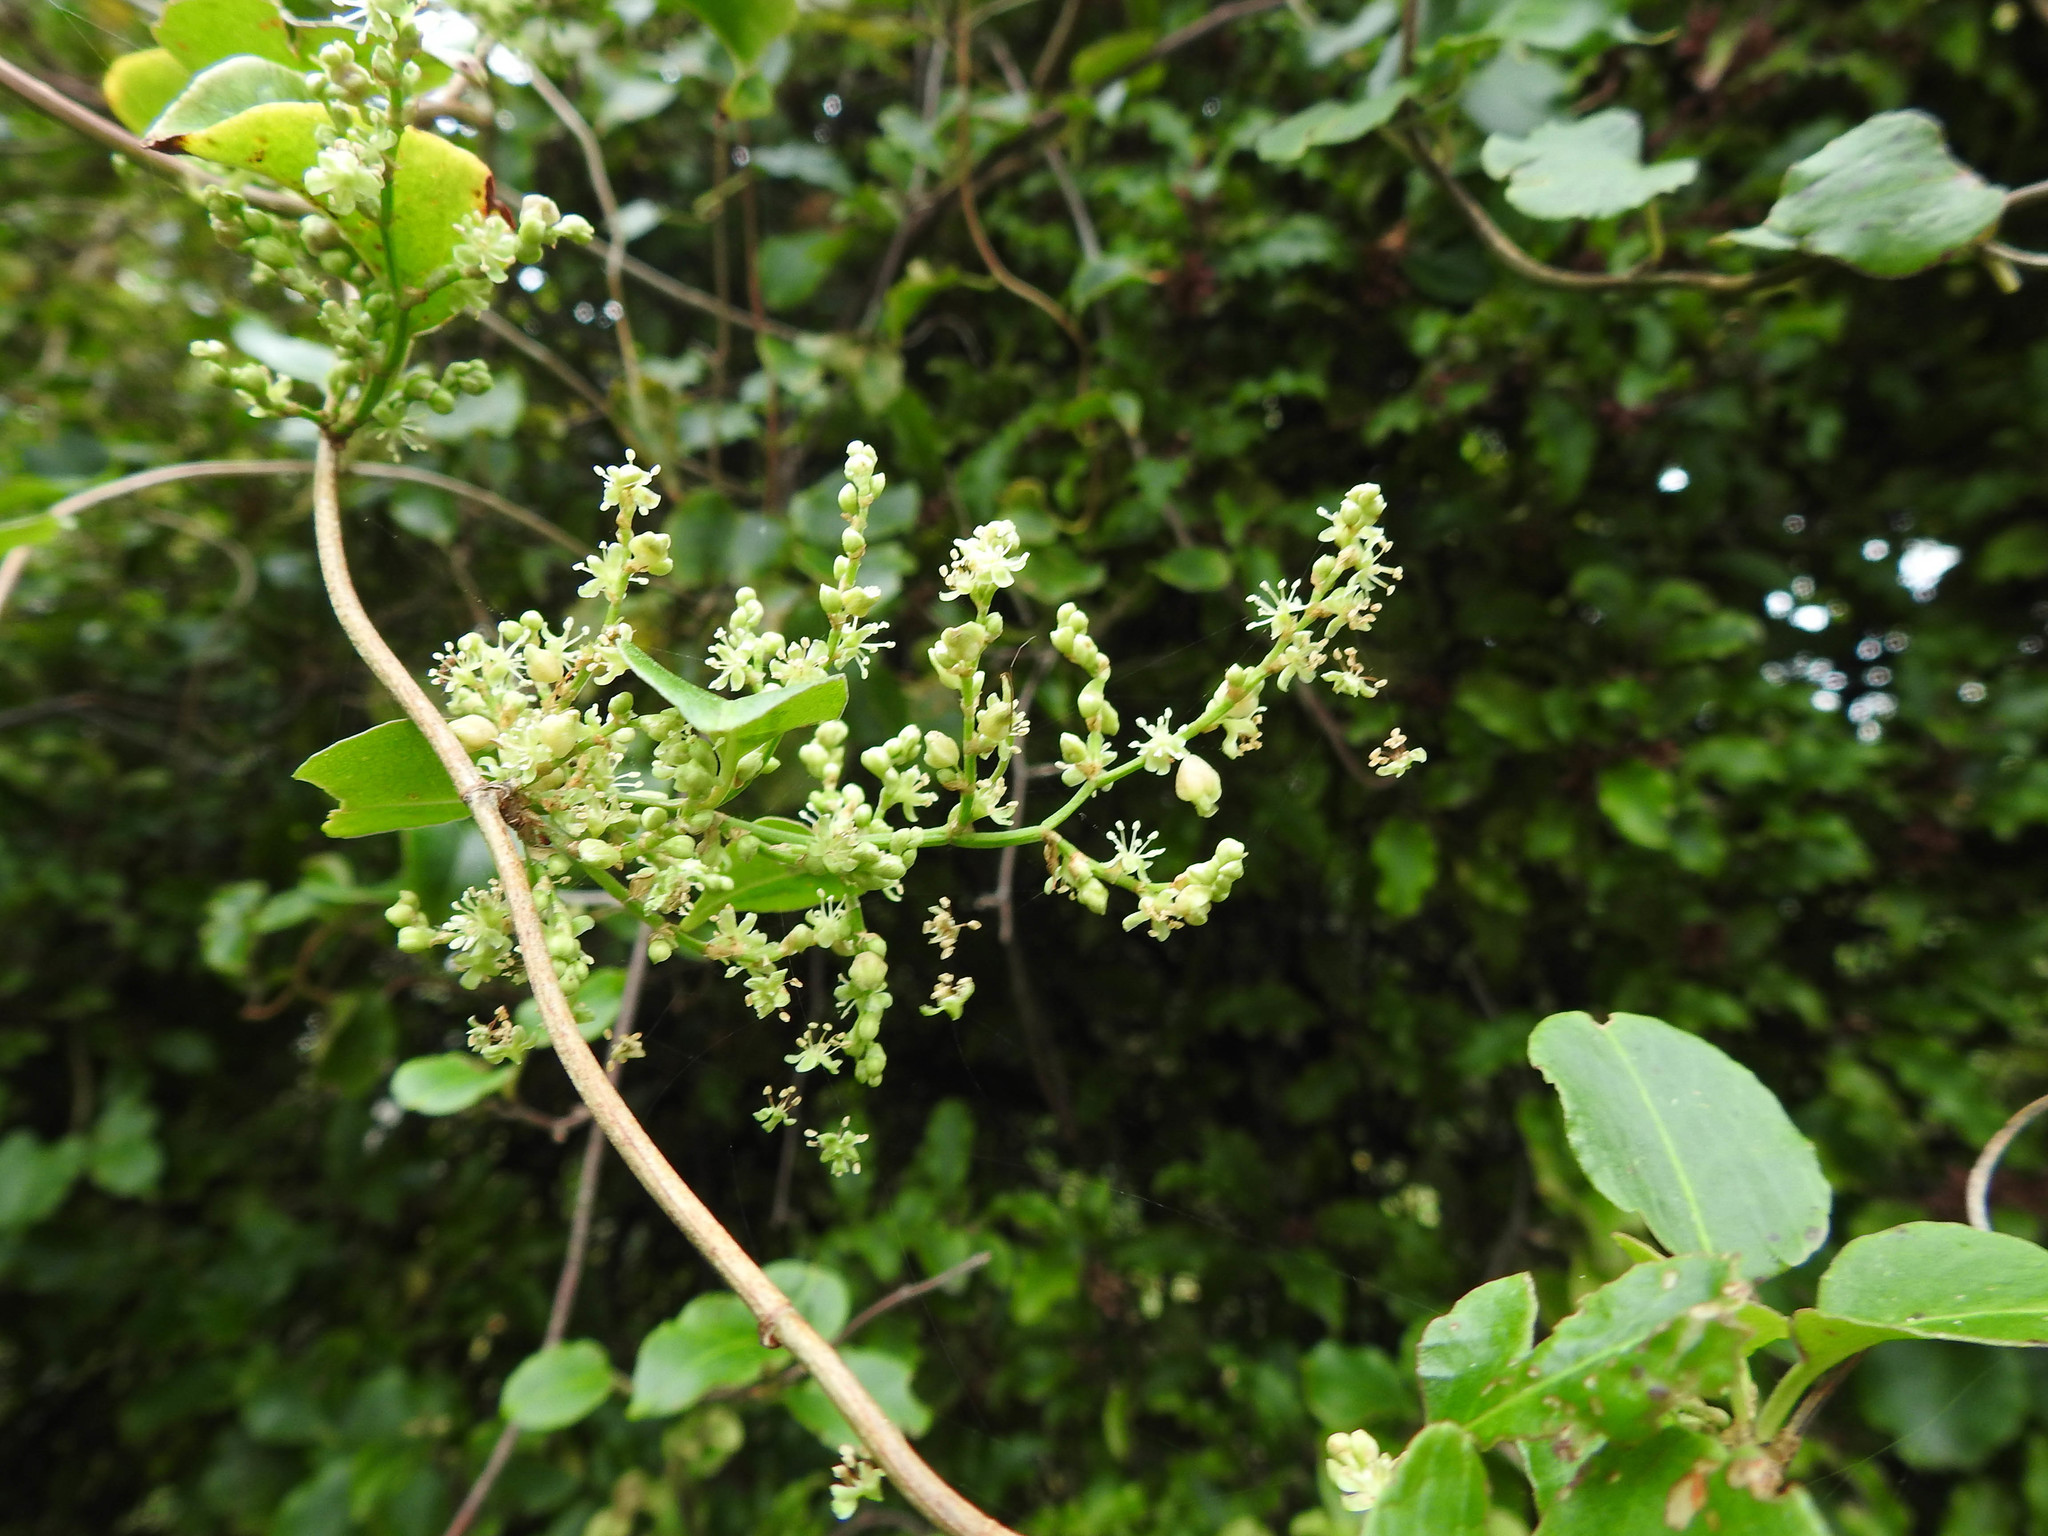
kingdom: Plantae
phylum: Tracheophyta
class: Magnoliopsida
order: Caryophyllales
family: Polygonaceae
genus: Muehlenbeckia
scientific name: Muehlenbeckia australis
